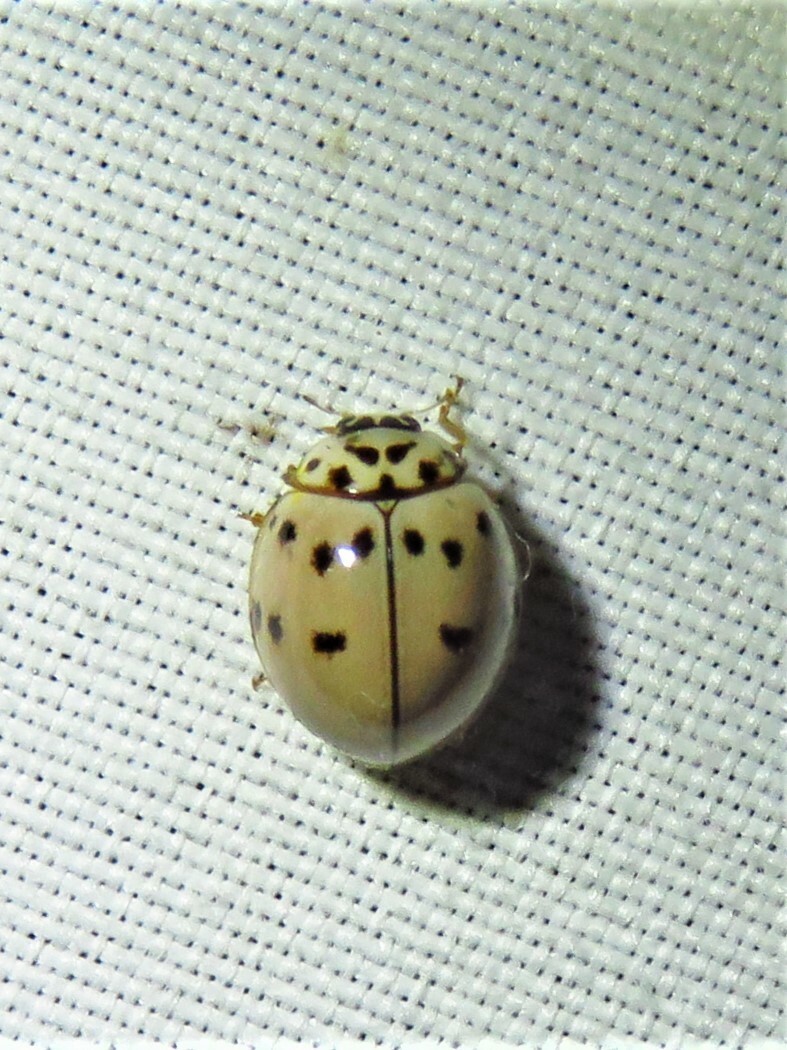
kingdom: Animalia
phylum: Arthropoda
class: Insecta
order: Coleoptera
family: Coccinellidae
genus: Olla
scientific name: Olla v-nigrum
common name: Ashy gray lady beetle
